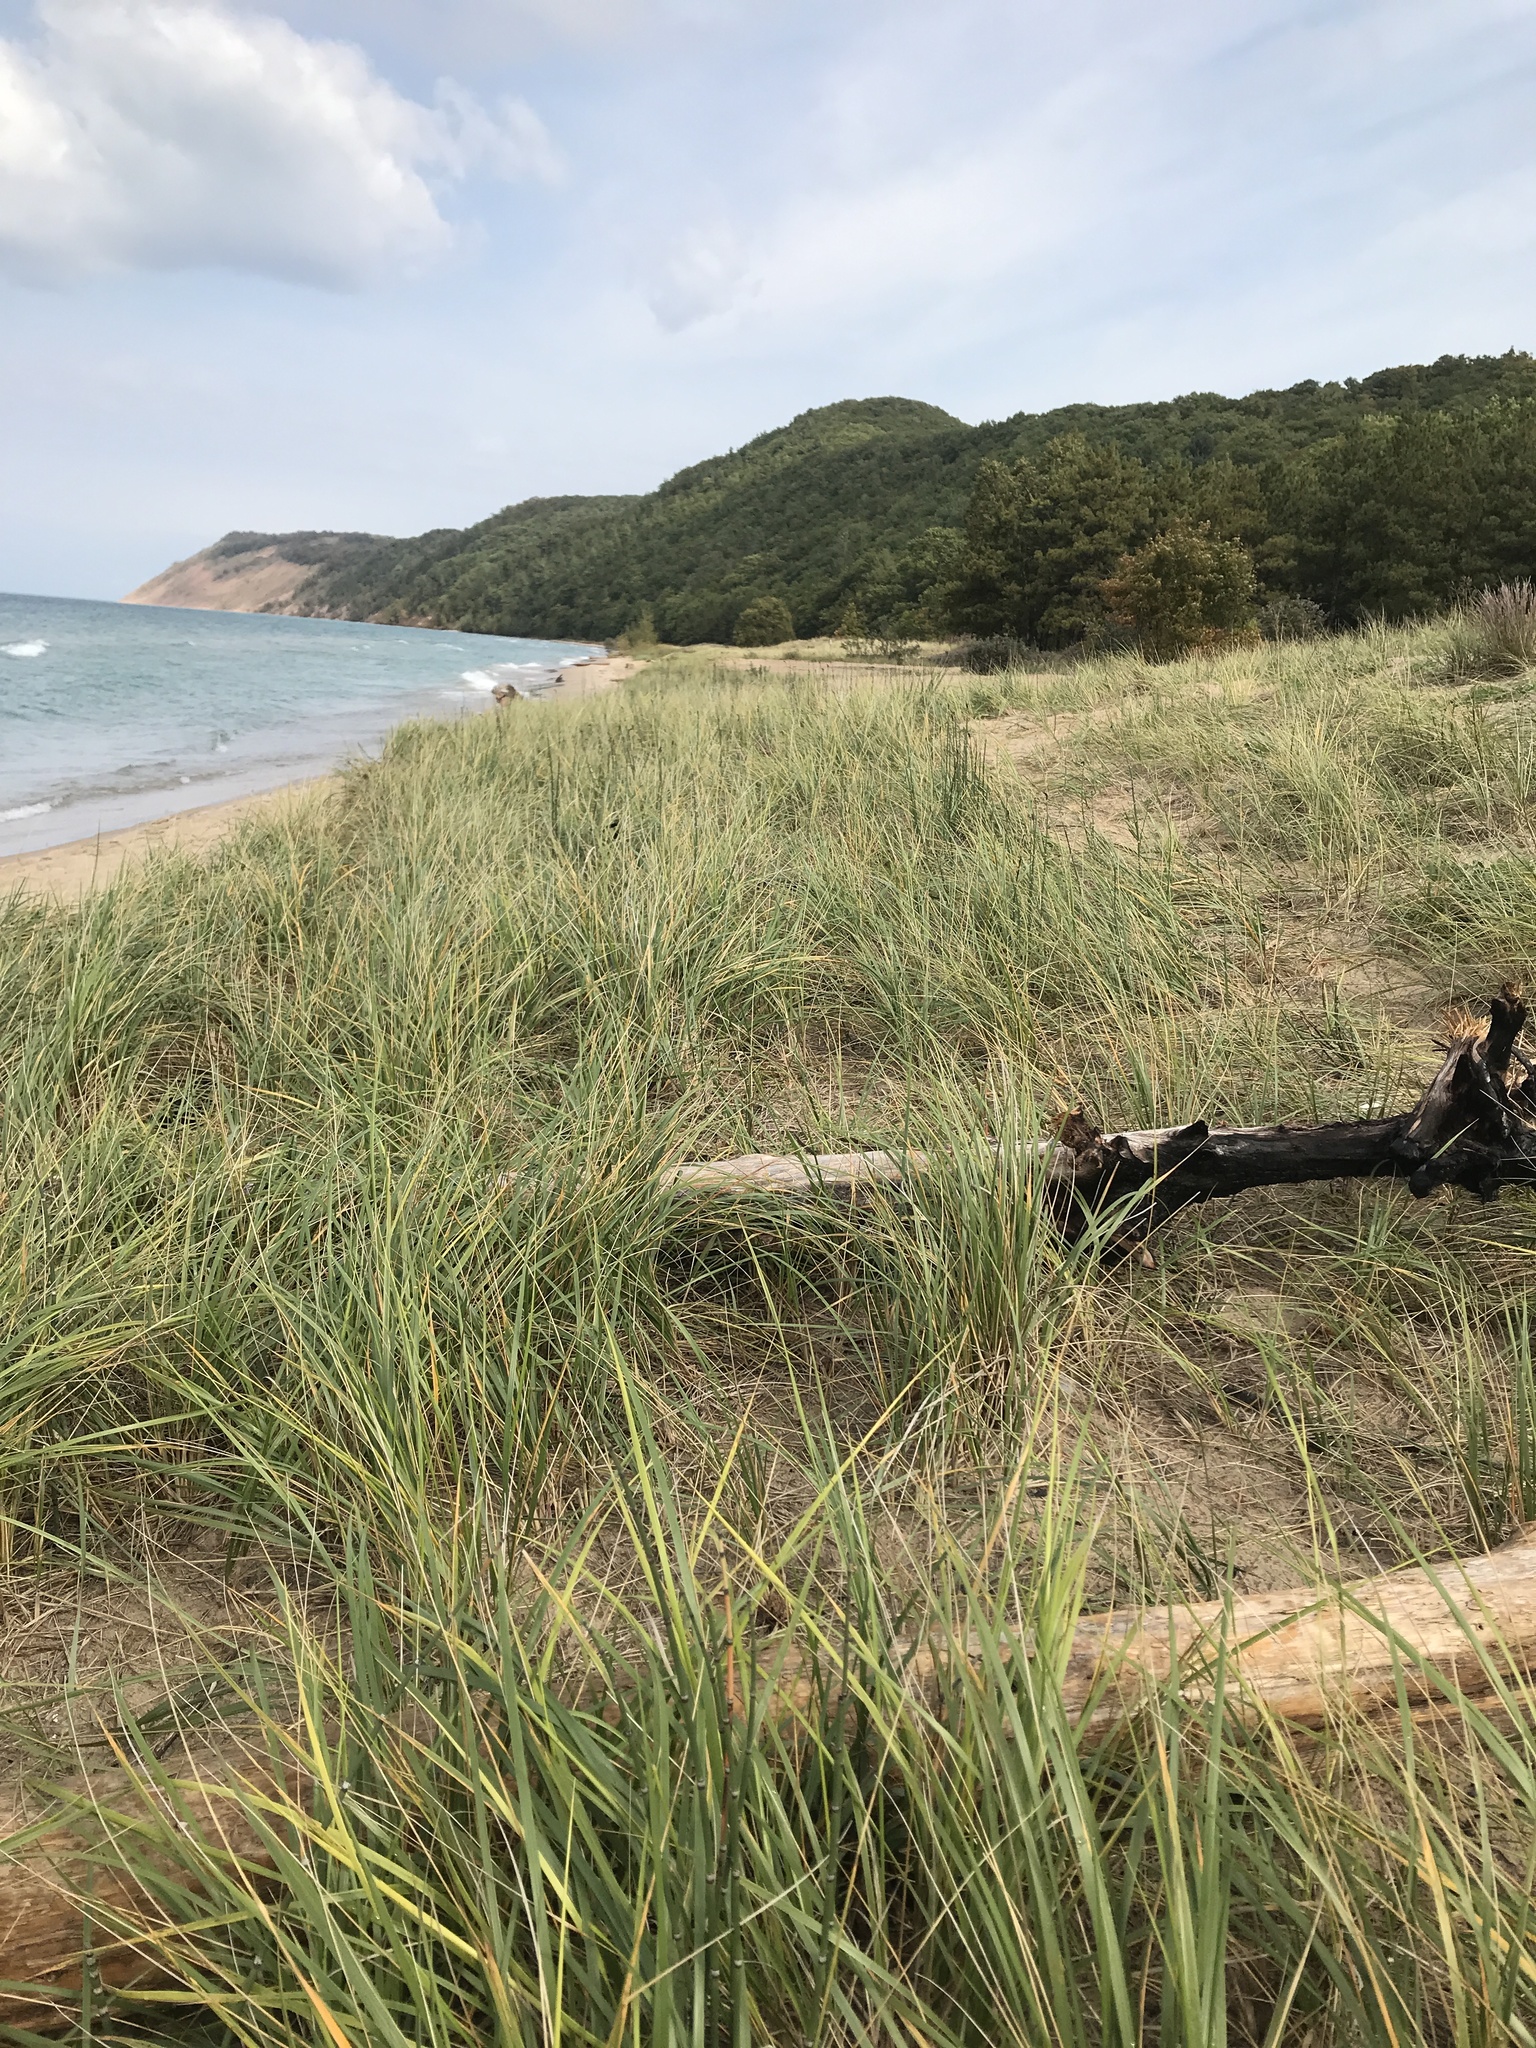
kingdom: Plantae
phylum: Tracheophyta
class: Liliopsida
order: Poales
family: Poaceae
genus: Calamagrostis
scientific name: Calamagrostis breviligulata
